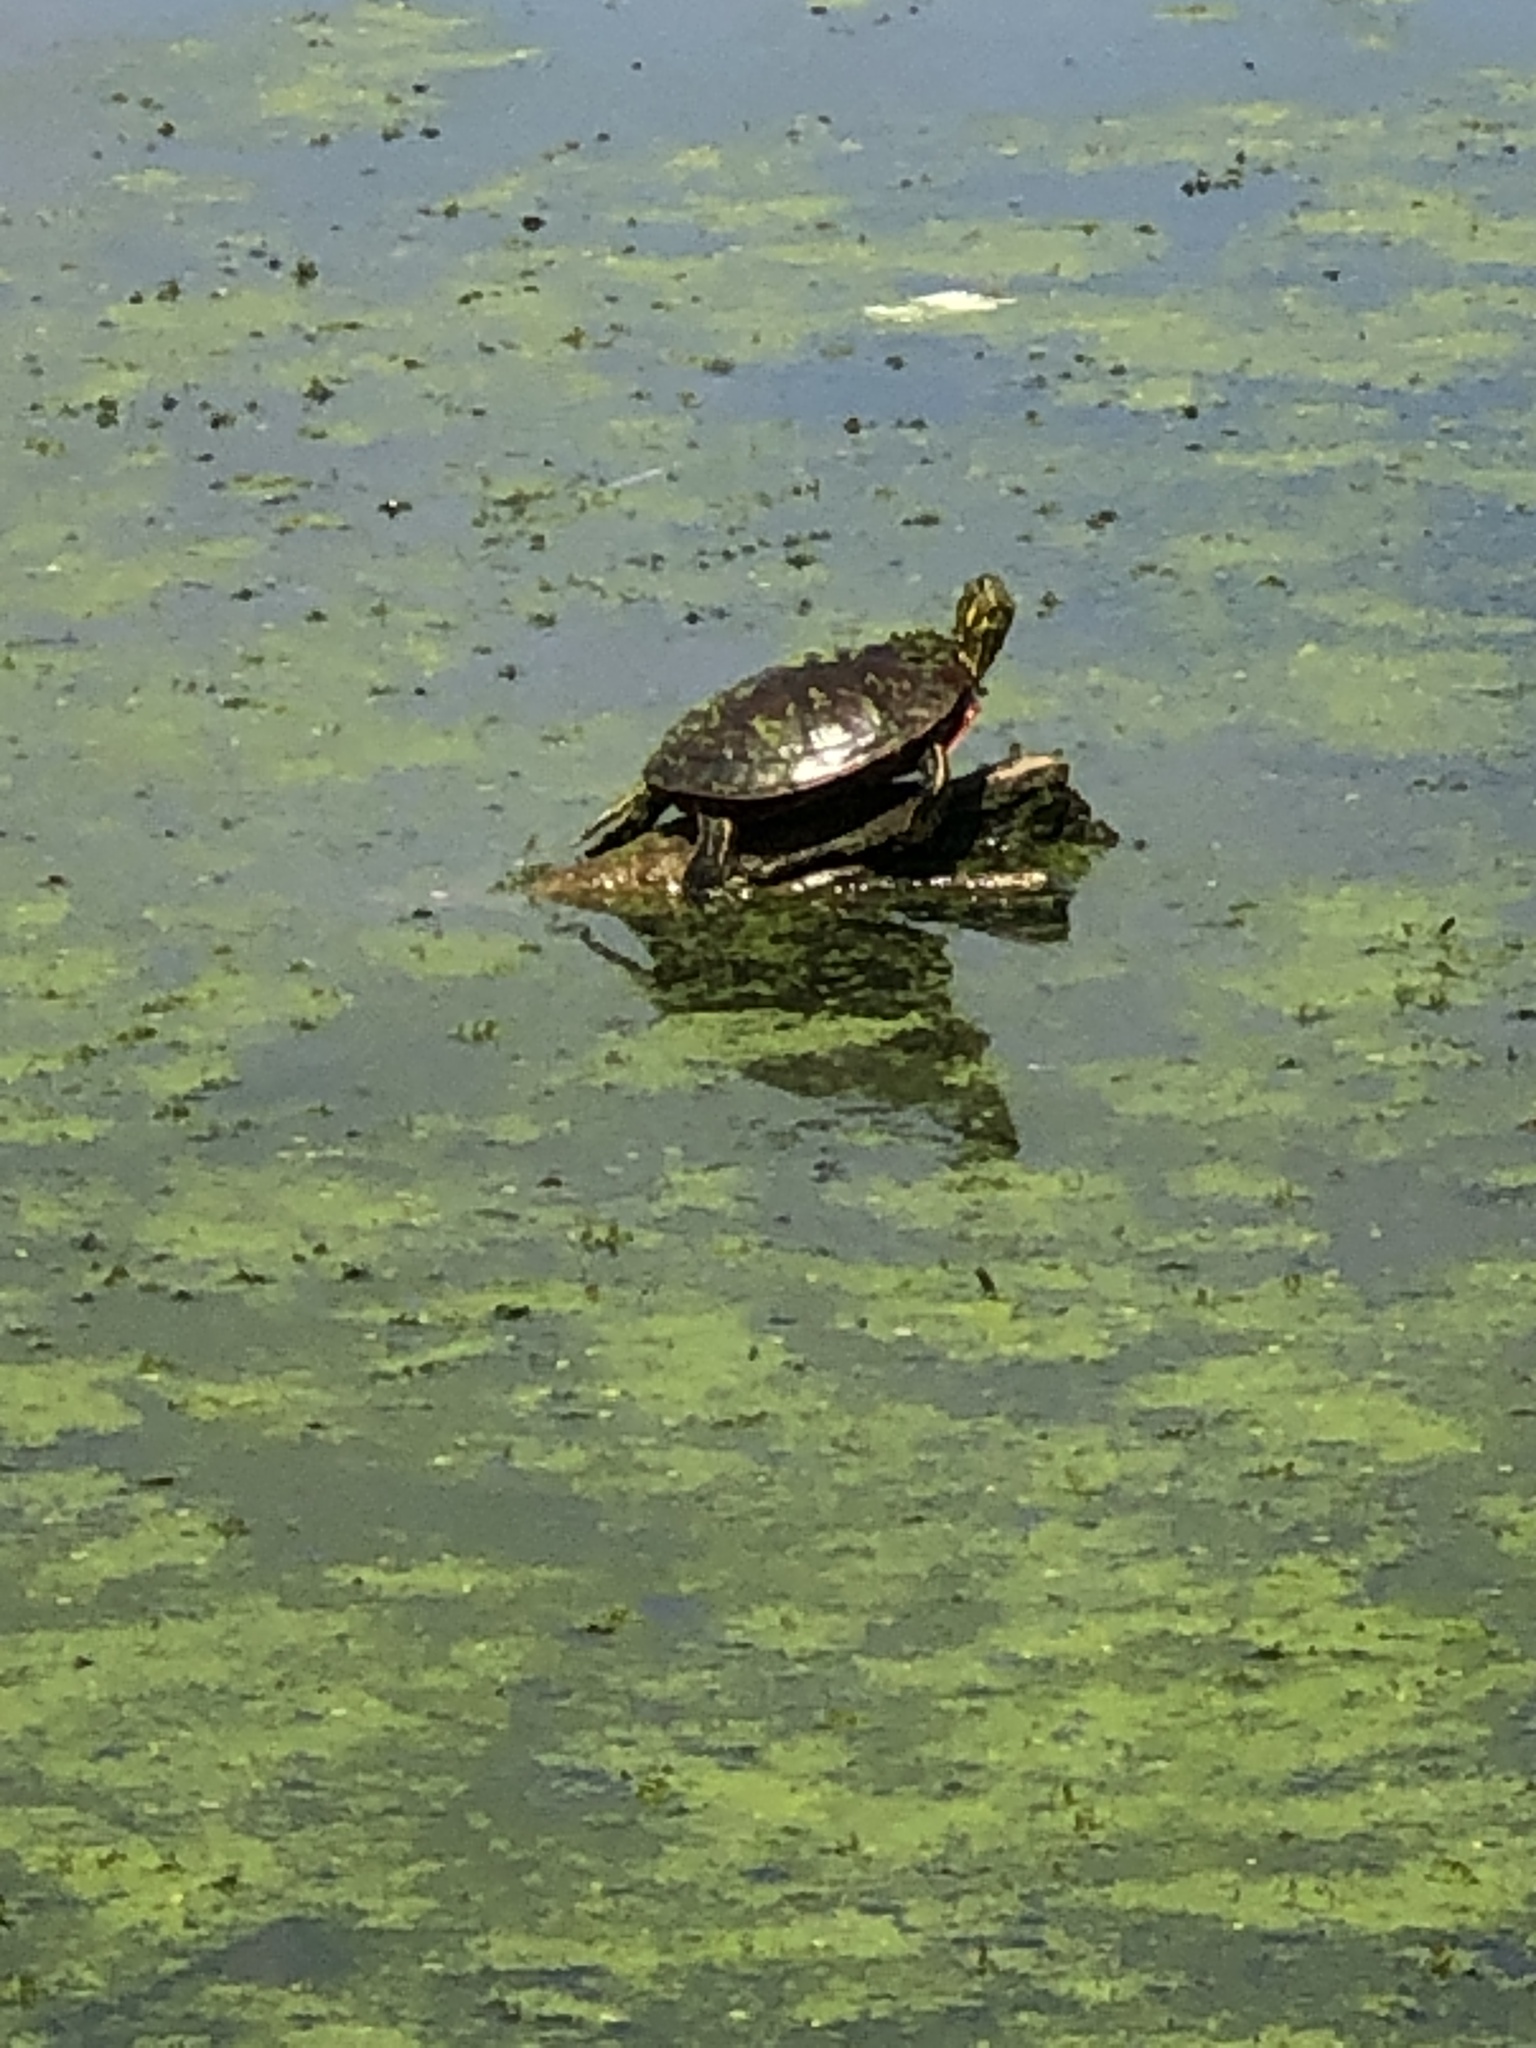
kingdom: Animalia
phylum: Chordata
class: Testudines
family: Emydidae
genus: Chrysemys
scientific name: Chrysemys picta
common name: Painted turtle
